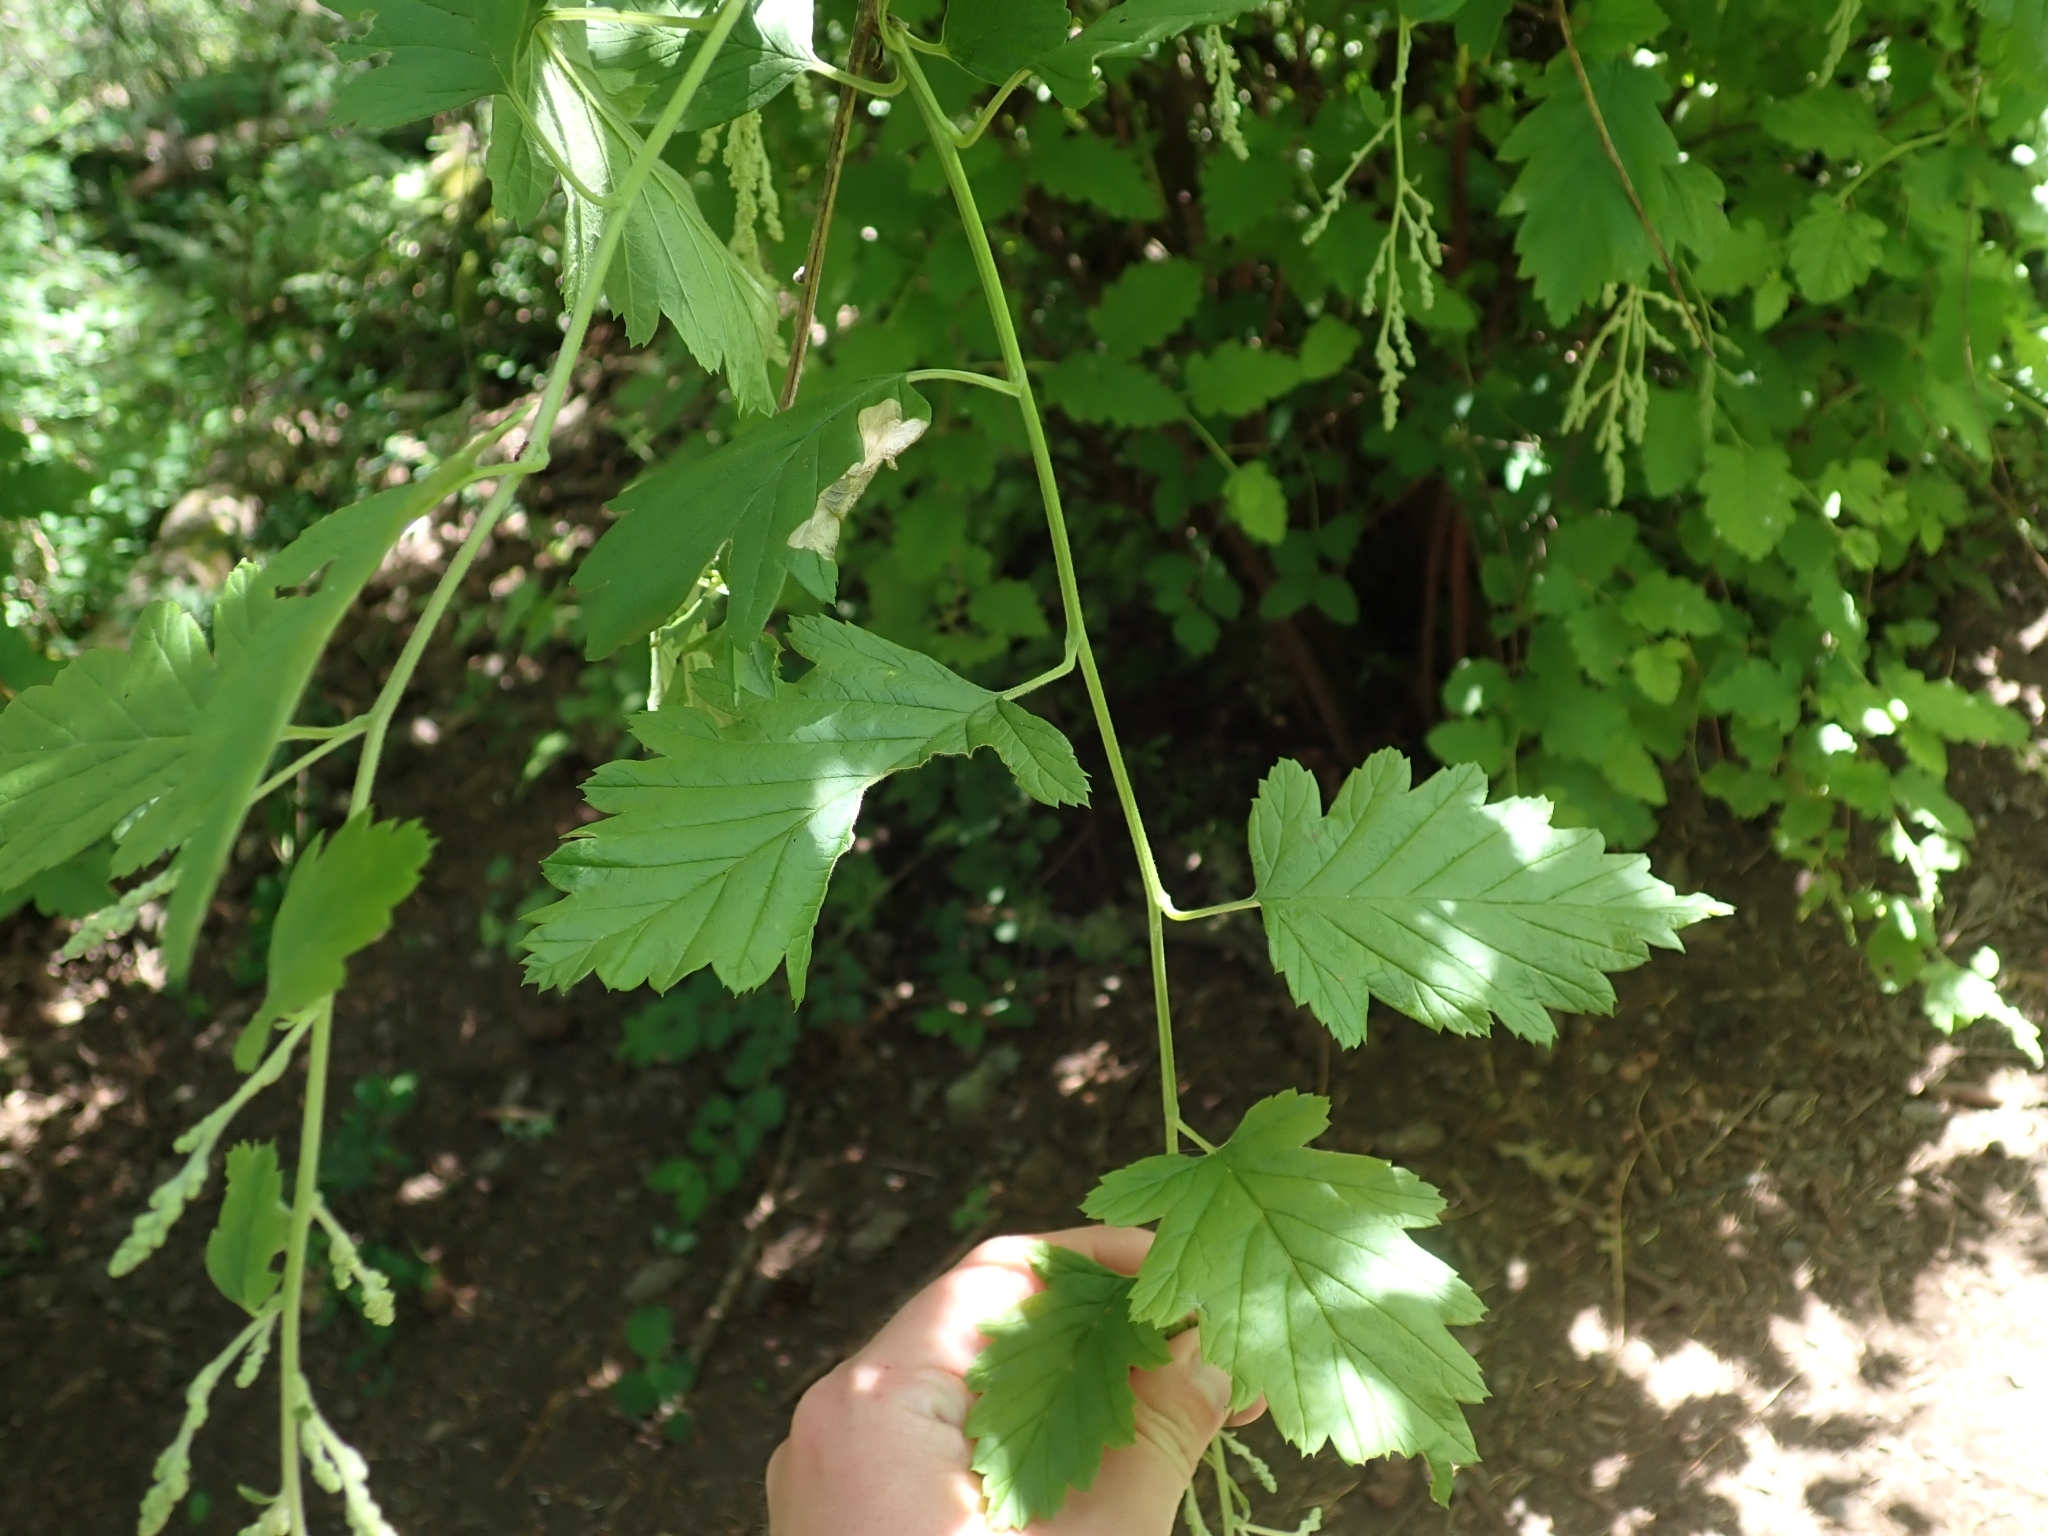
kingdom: Plantae
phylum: Tracheophyta
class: Magnoliopsida
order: Rosales
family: Rosaceae
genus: Holodiscus
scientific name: Holodiscus discolor
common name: Oceanspray
